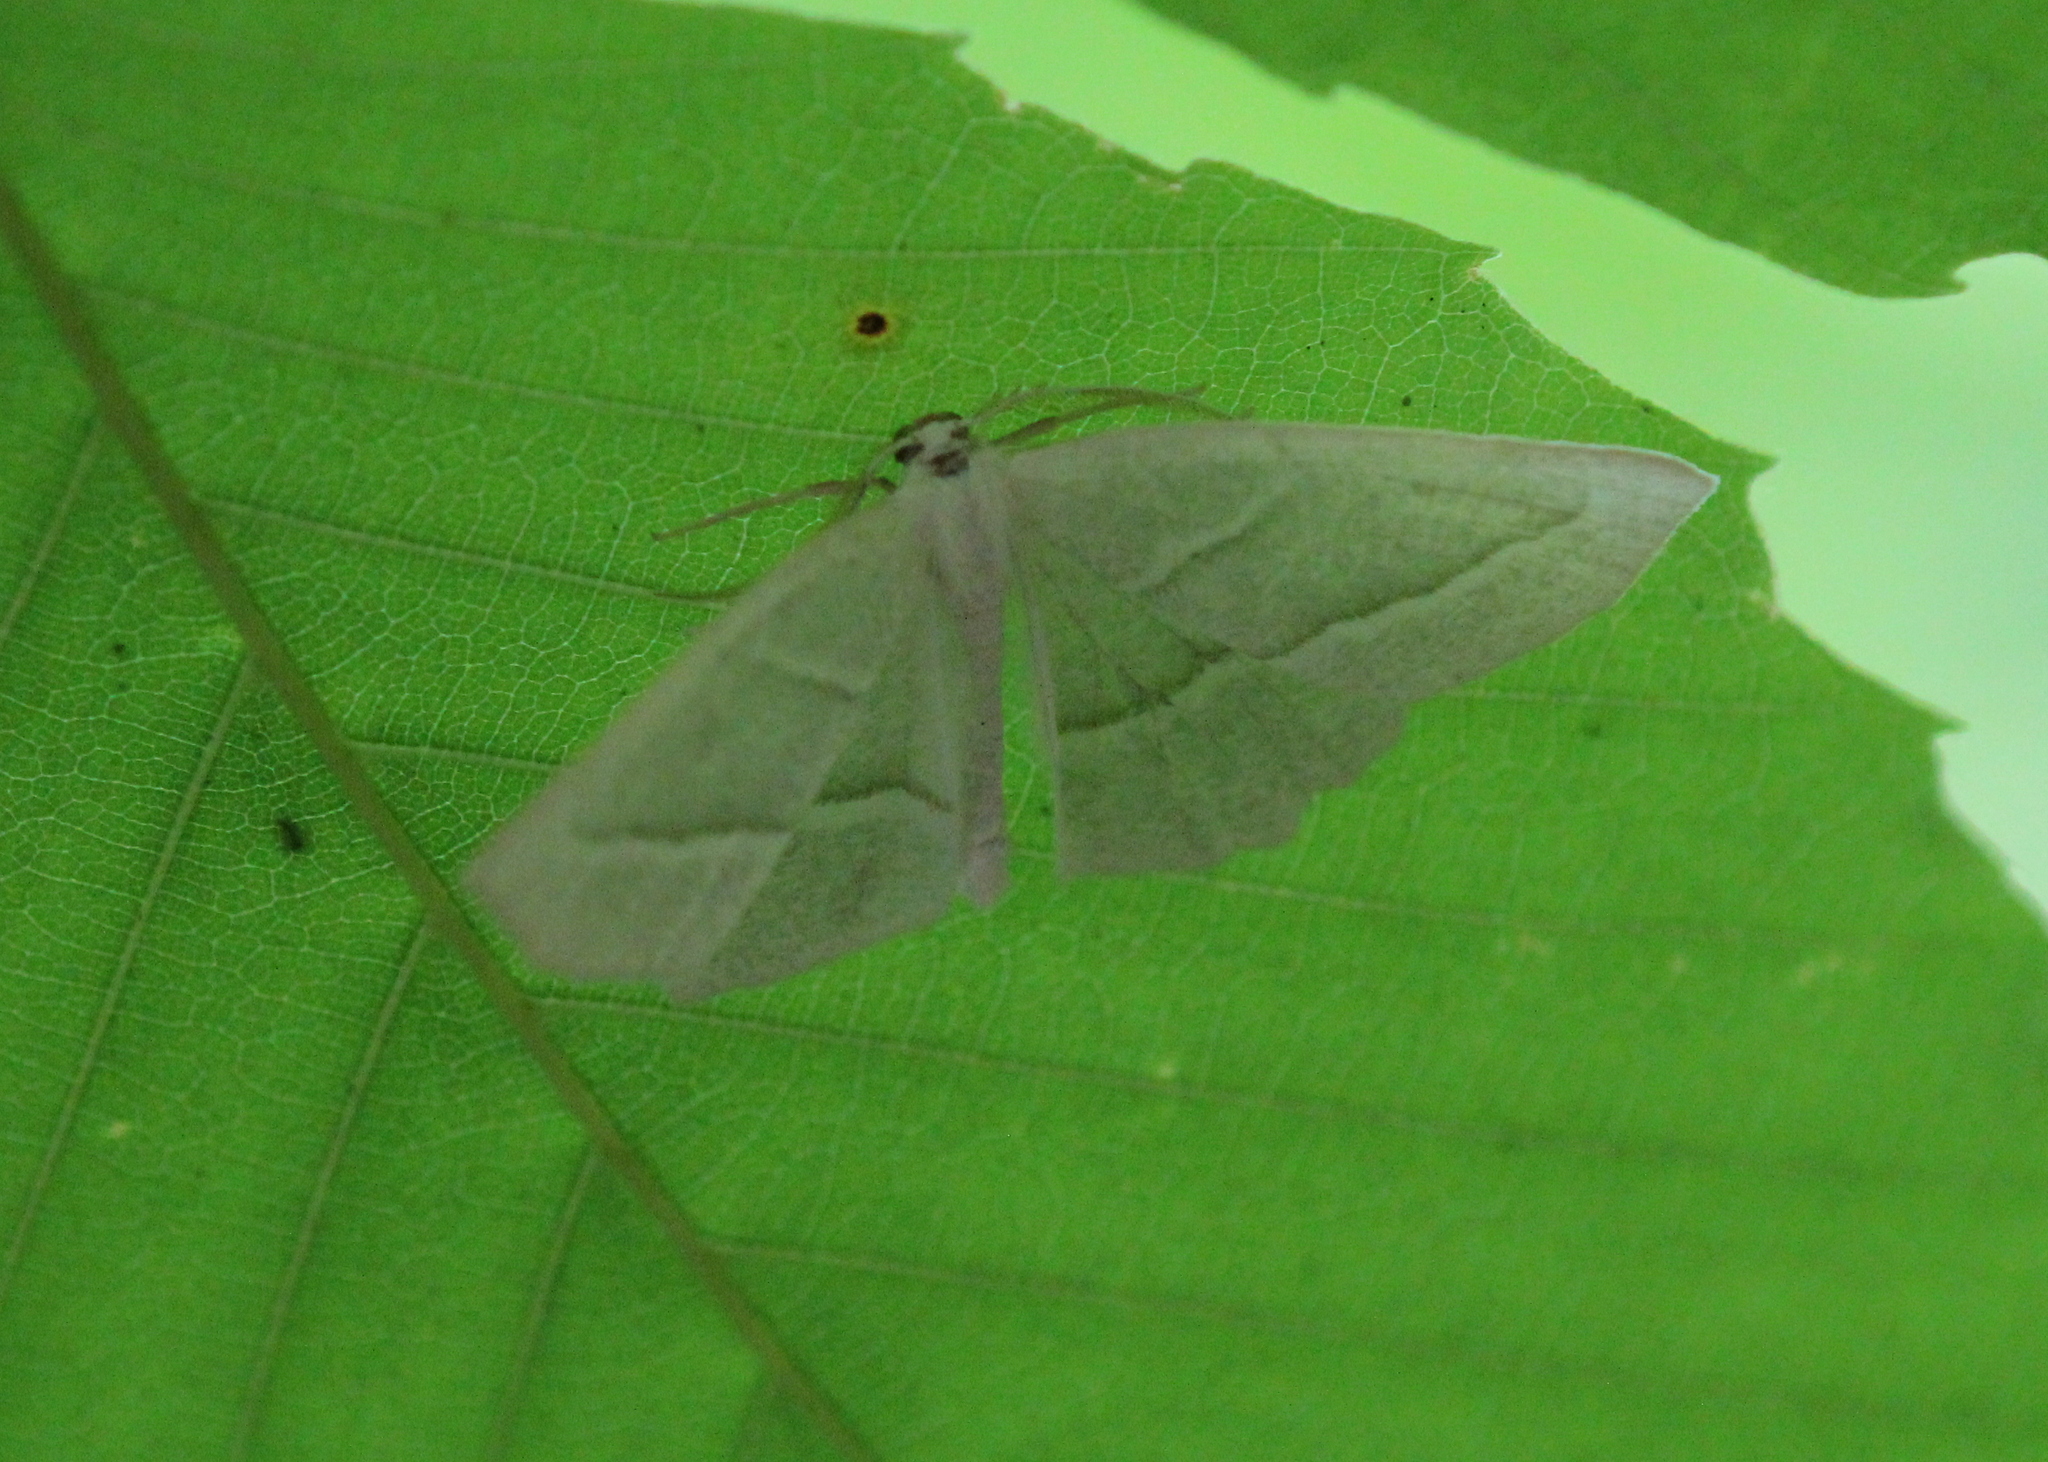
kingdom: Animalia
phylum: Arthropoda
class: Insecta
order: Lepidoptera
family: Geometridae
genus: Campaea
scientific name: Campaea perlata
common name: Fringed looper
